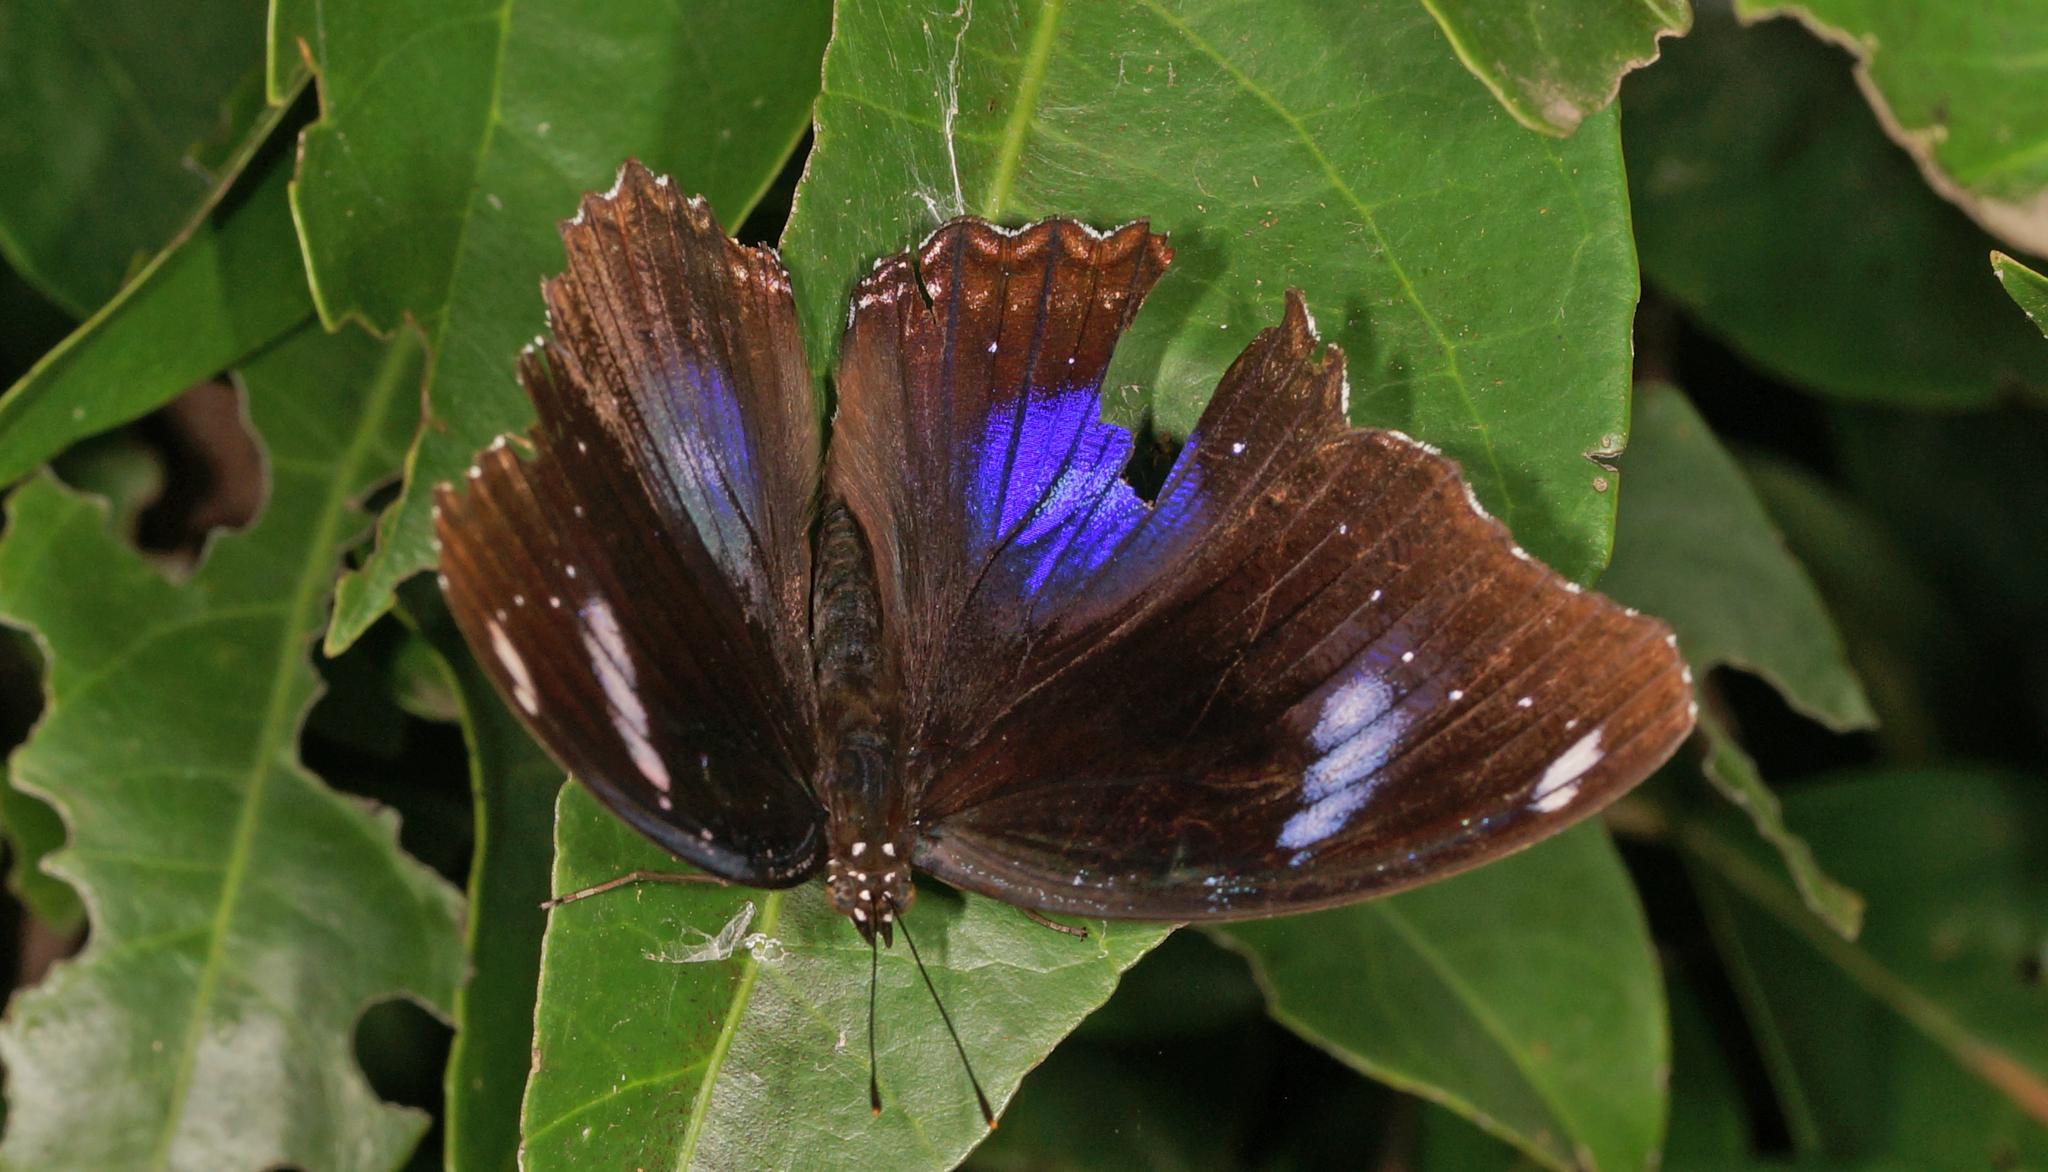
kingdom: Animalia
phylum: Arthropoda
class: Insecta
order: Lepidoptera
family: Nymphalidae
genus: Hypolimnas
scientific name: Hypolimnas bolina
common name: Great eggfly
